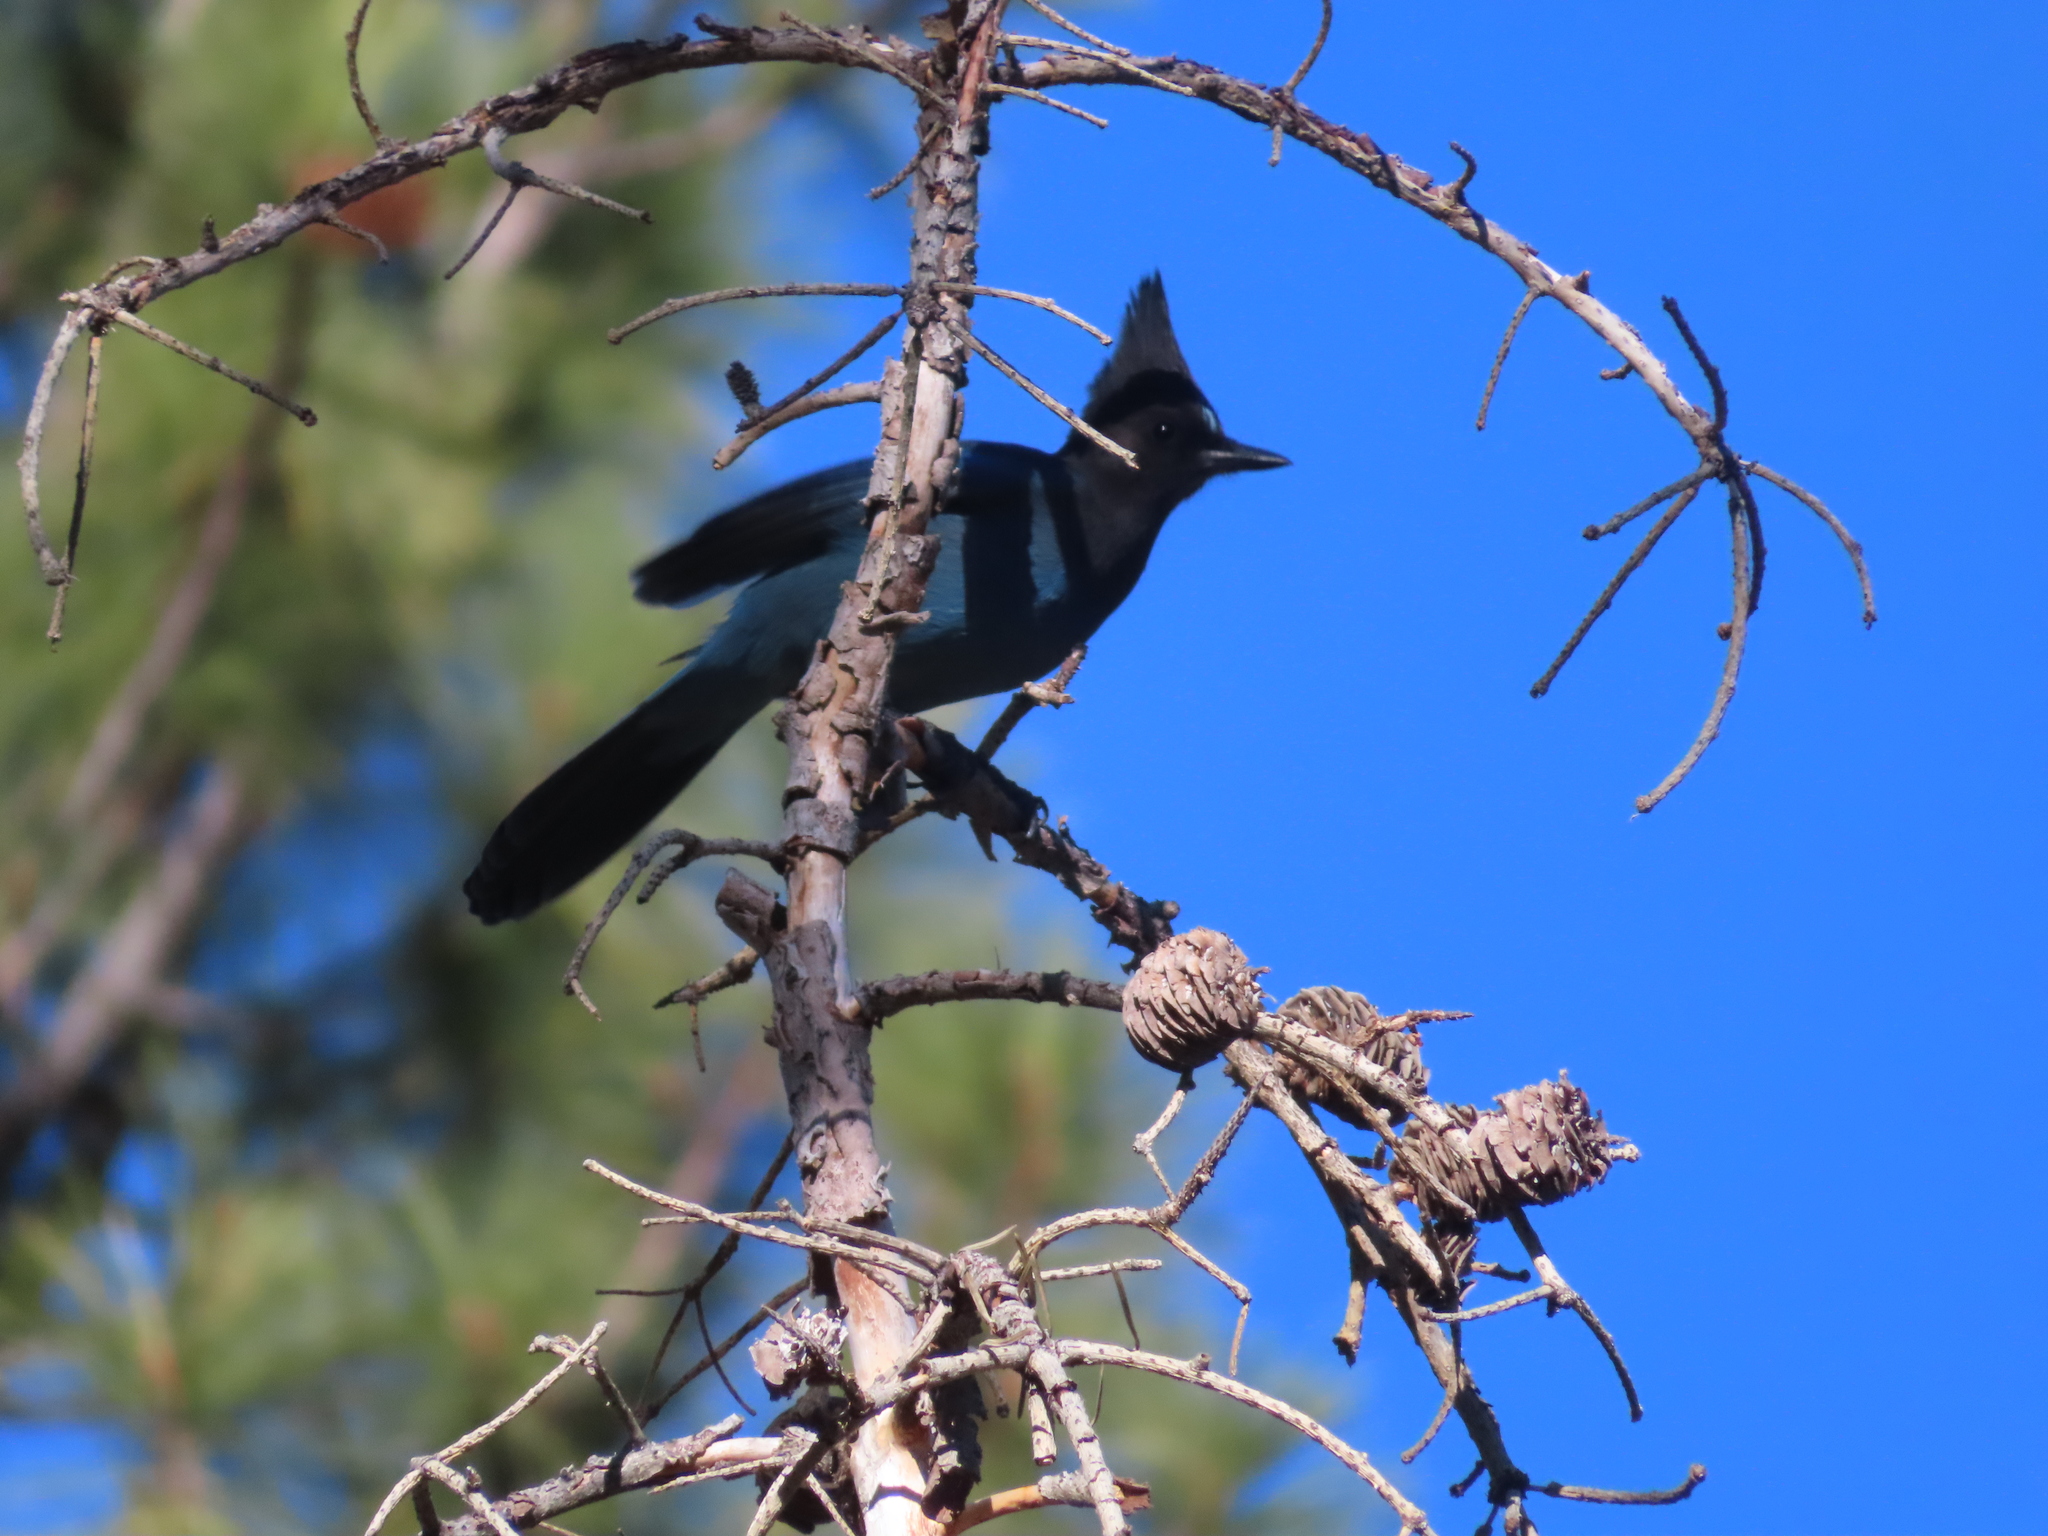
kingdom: Animalia
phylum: Chordata
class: Aves
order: Passeriformes
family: Corvidae
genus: Cyanocitta
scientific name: Cyanocitta stelleri
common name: Steller's jay
